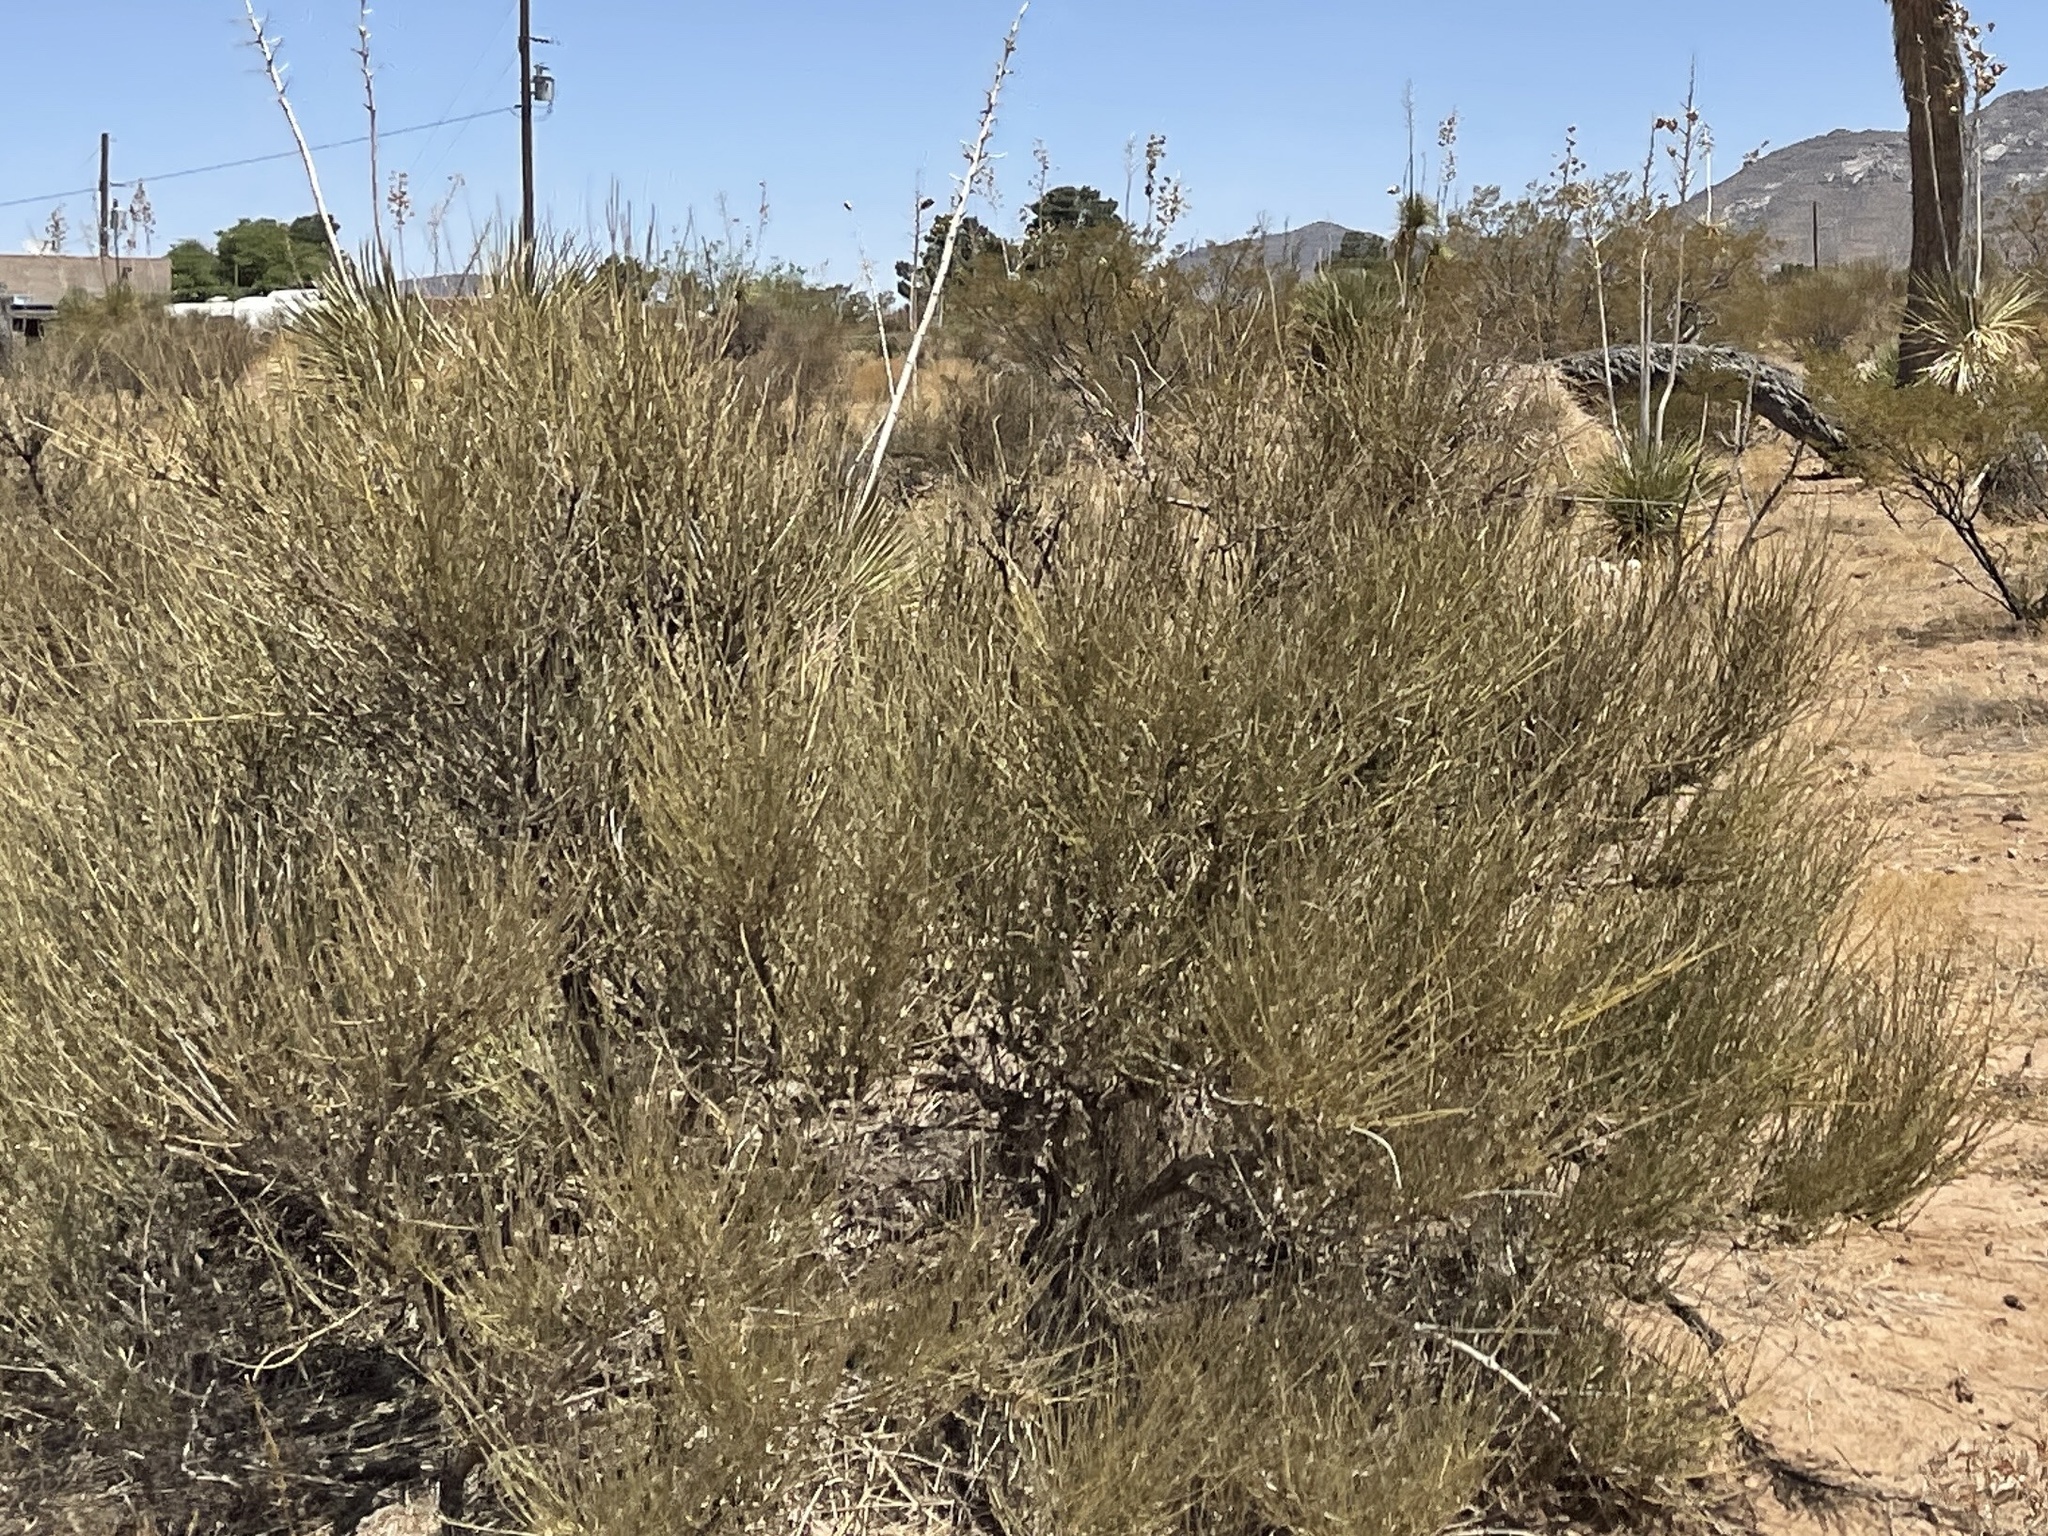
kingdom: Plantae
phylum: Tracheophyta
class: Gnetopsida
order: Ephedrales
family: Ephedraceae
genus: Ephedra
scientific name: Ephedra trifurca
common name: Mexican-tea
